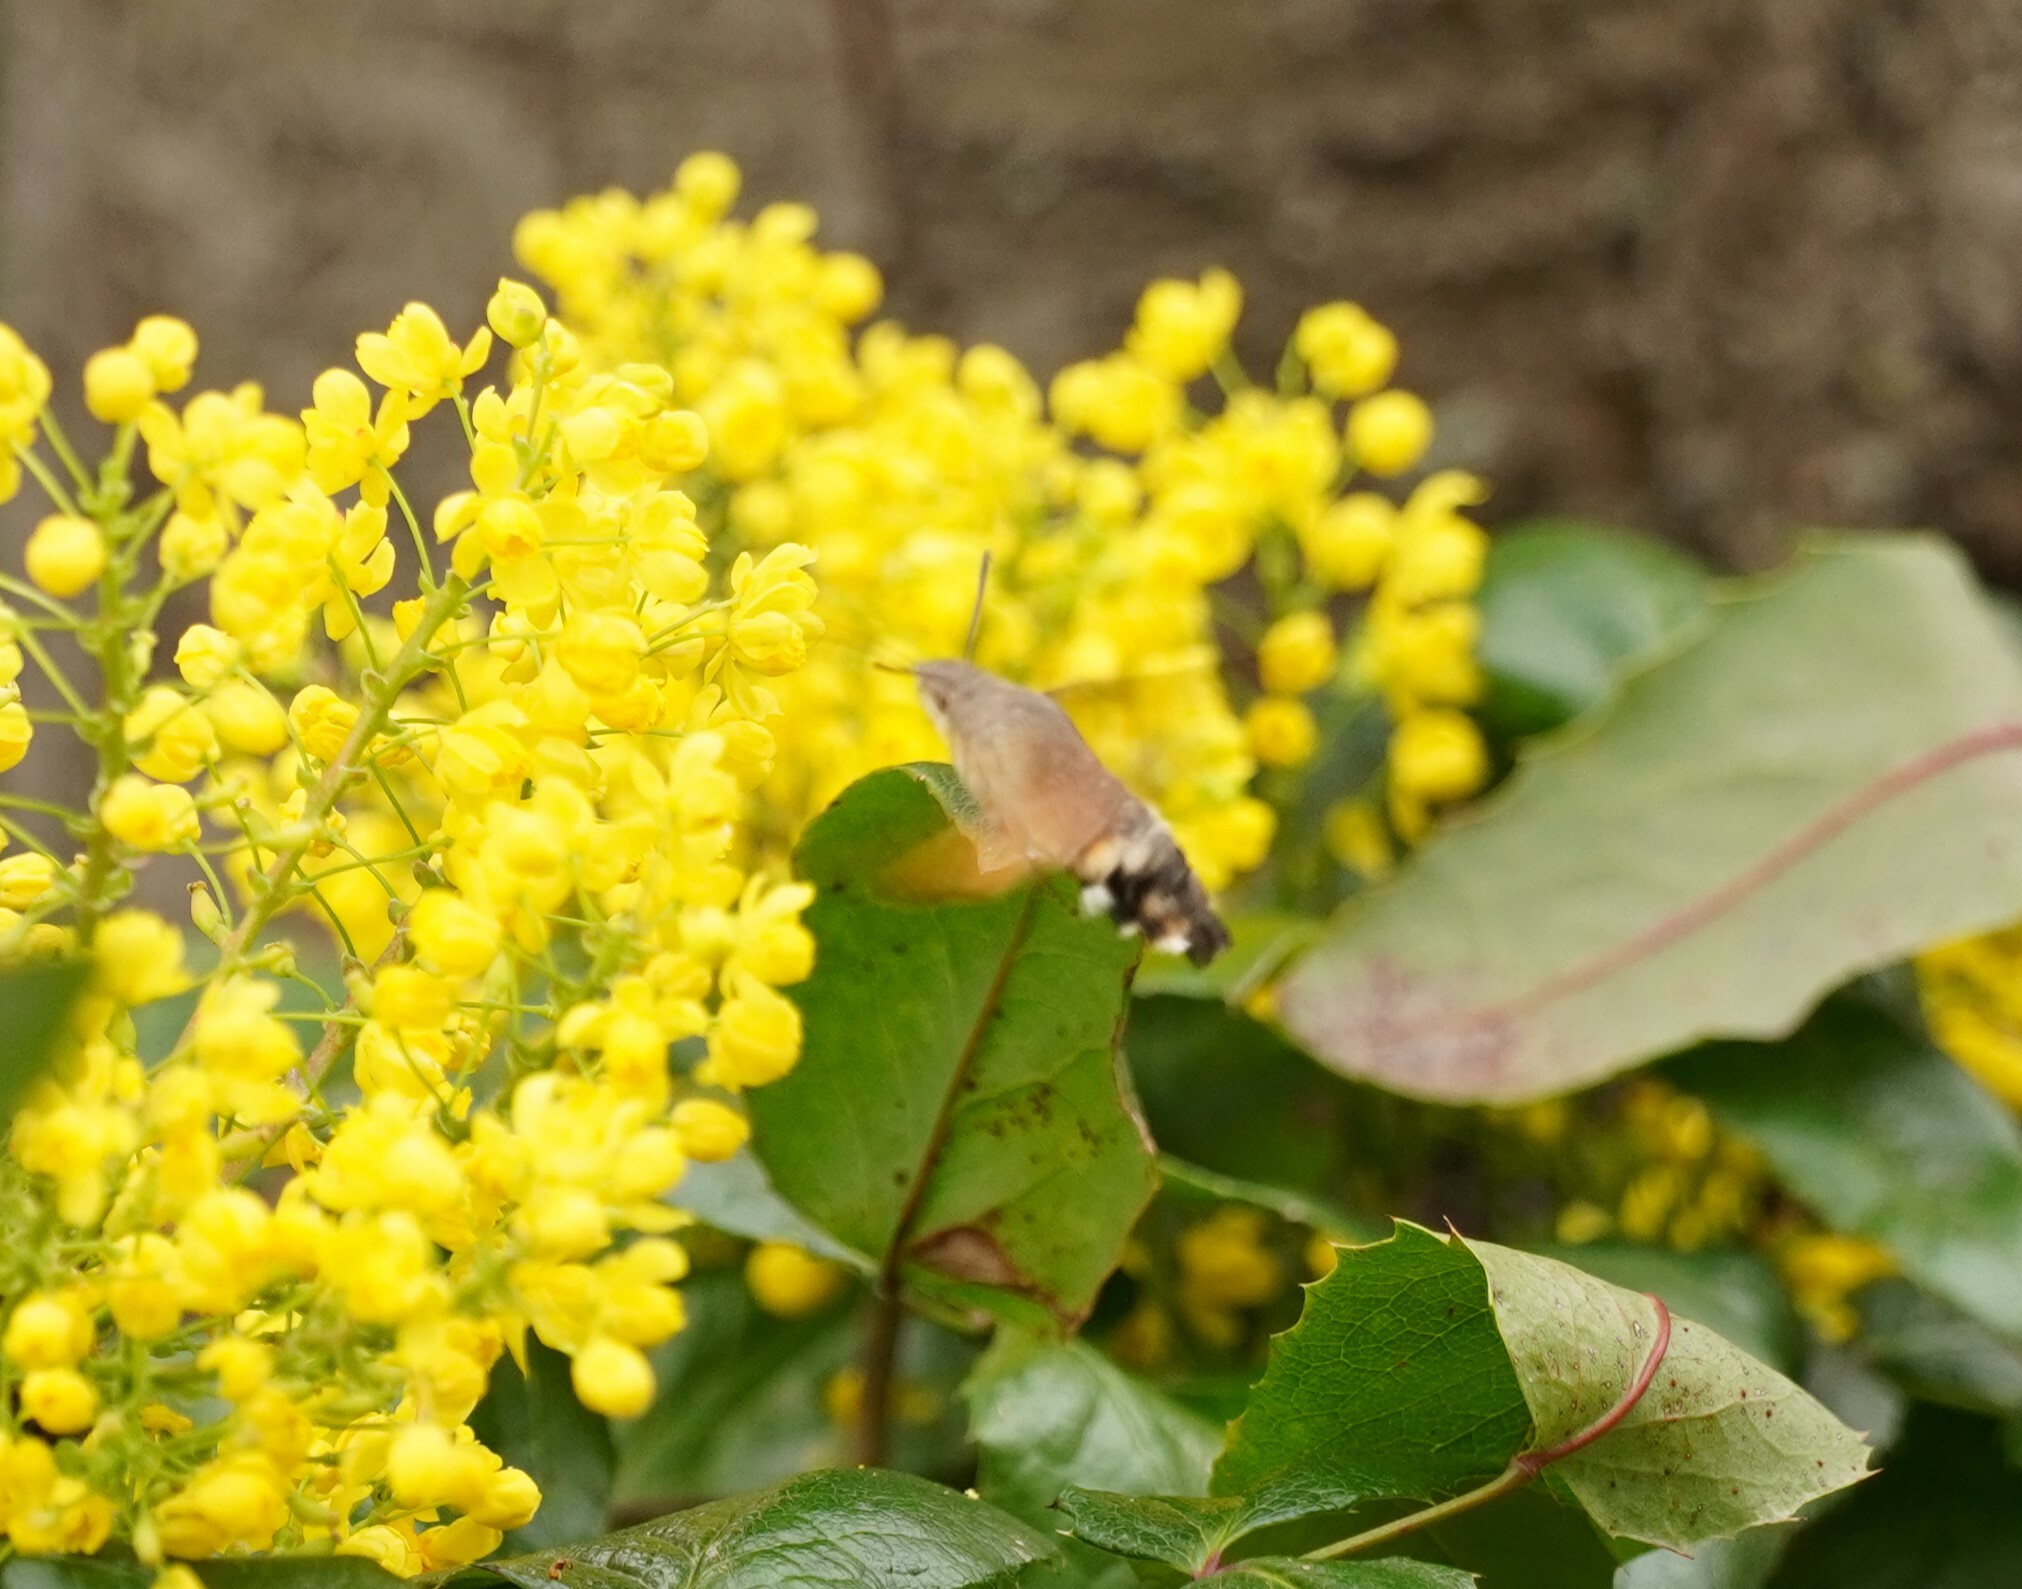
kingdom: Animalia
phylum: Arthropoda
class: Insecta
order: Lepidoptera
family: Sphingidae
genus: Macroglossum
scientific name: Macroglossum stellatarum
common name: Humming-bird hawk-moth
